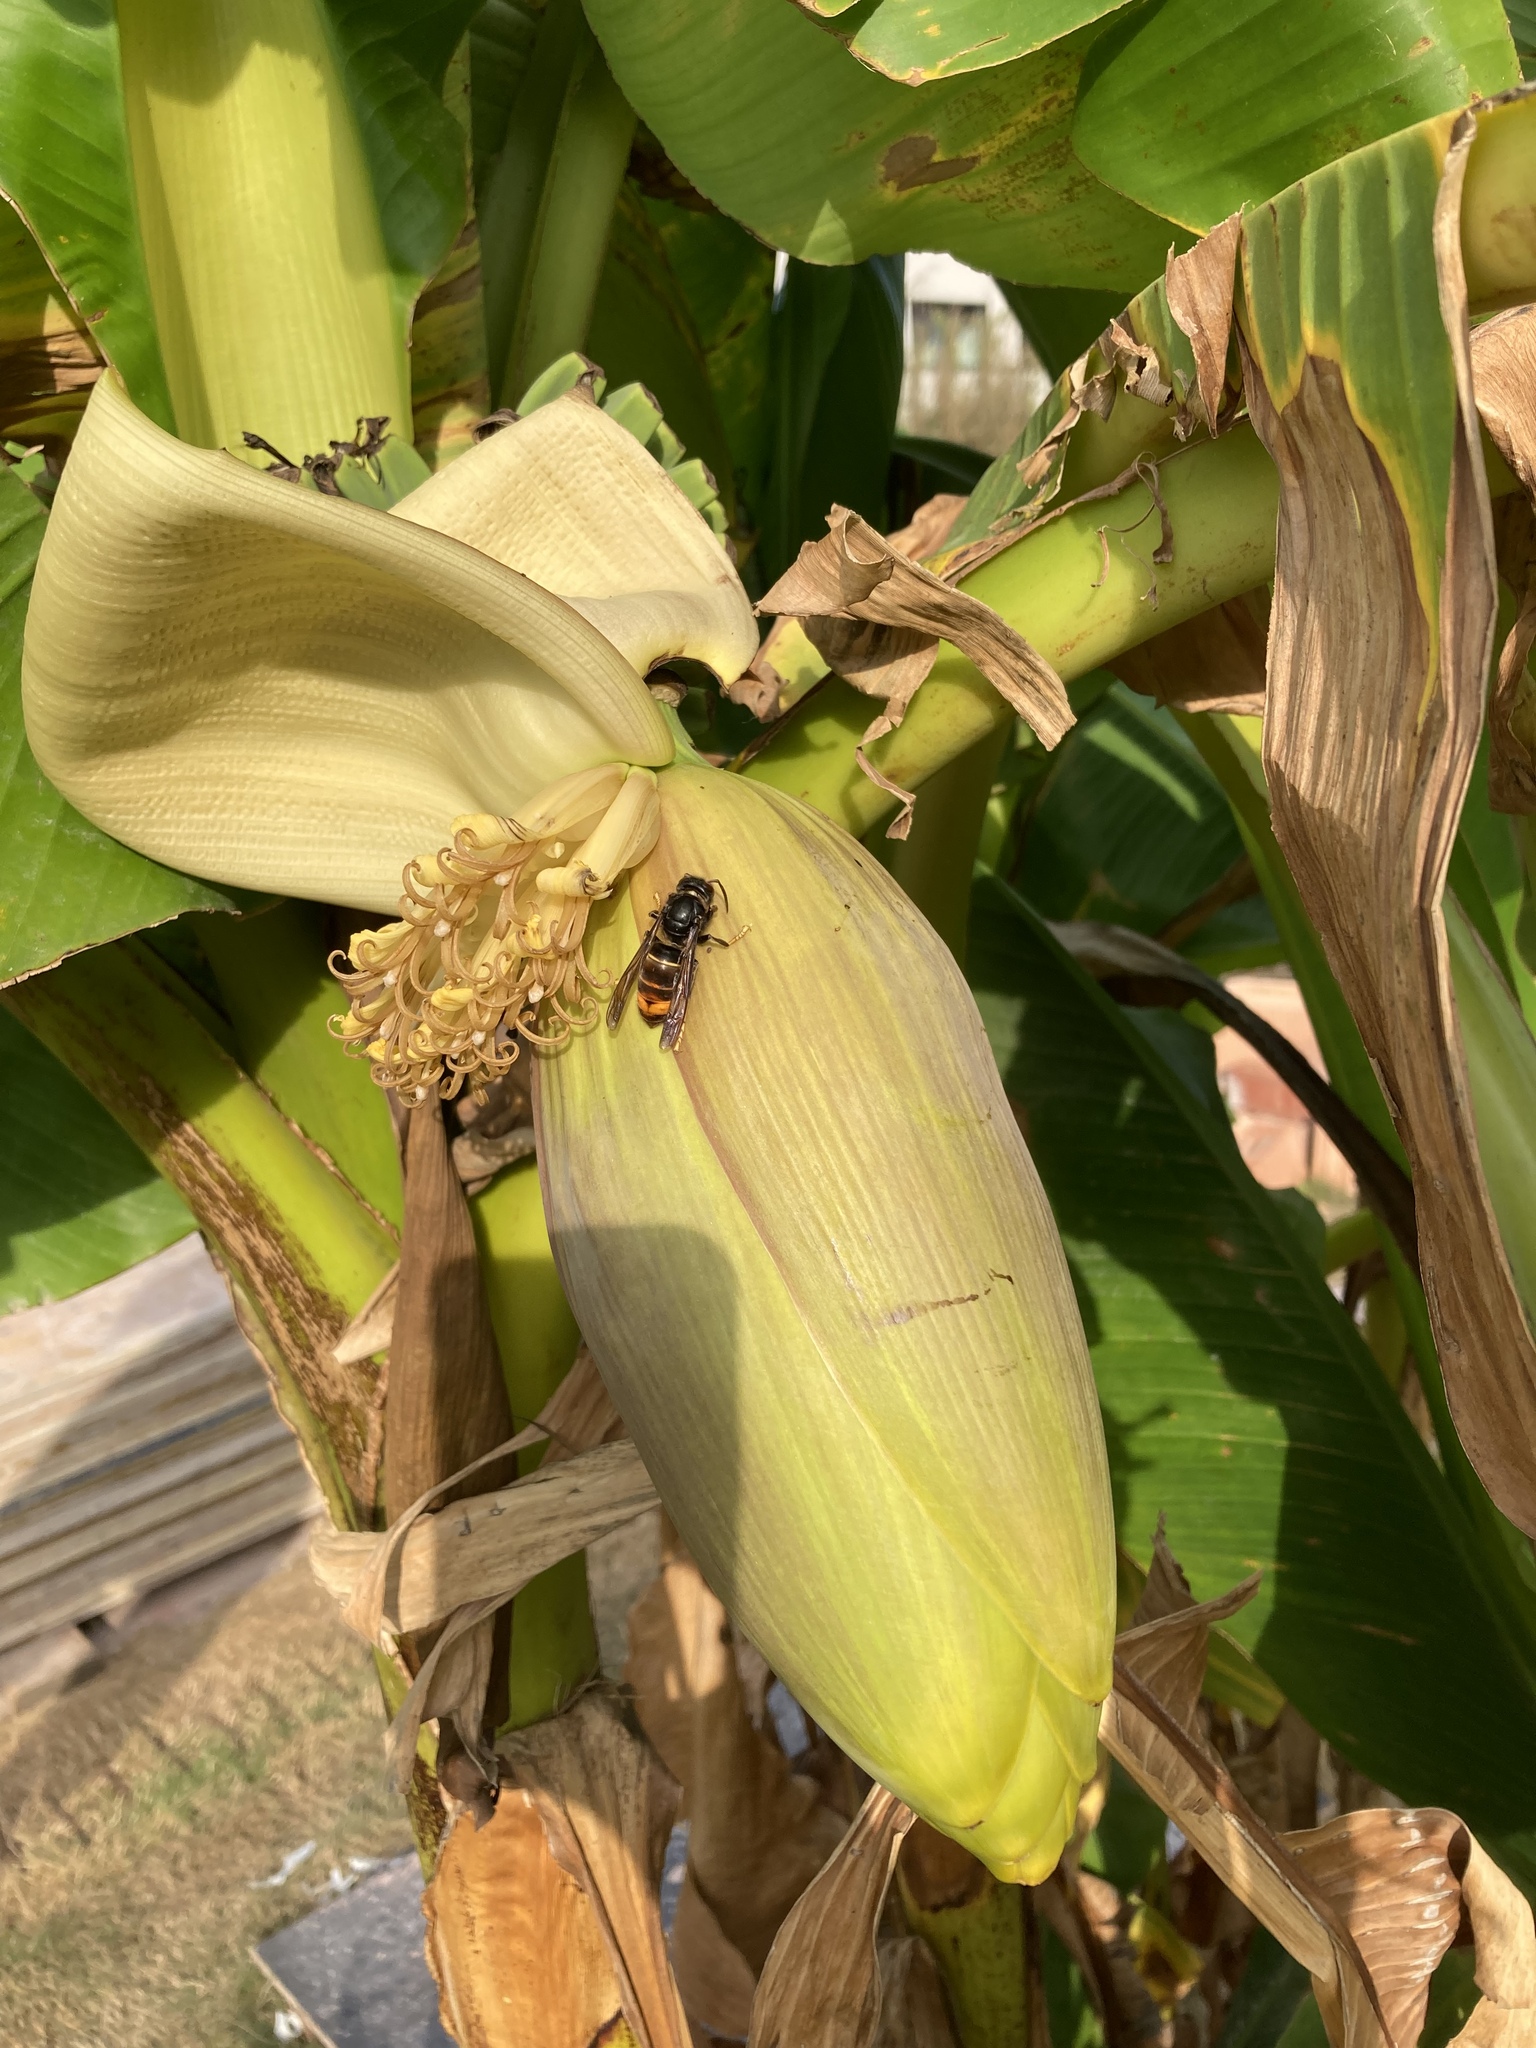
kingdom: Animalia
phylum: Arthropoda
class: Insecta
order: Hymenoptera
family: Vespidae
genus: Vespa
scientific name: Vespa velutina
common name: Asian hornet
